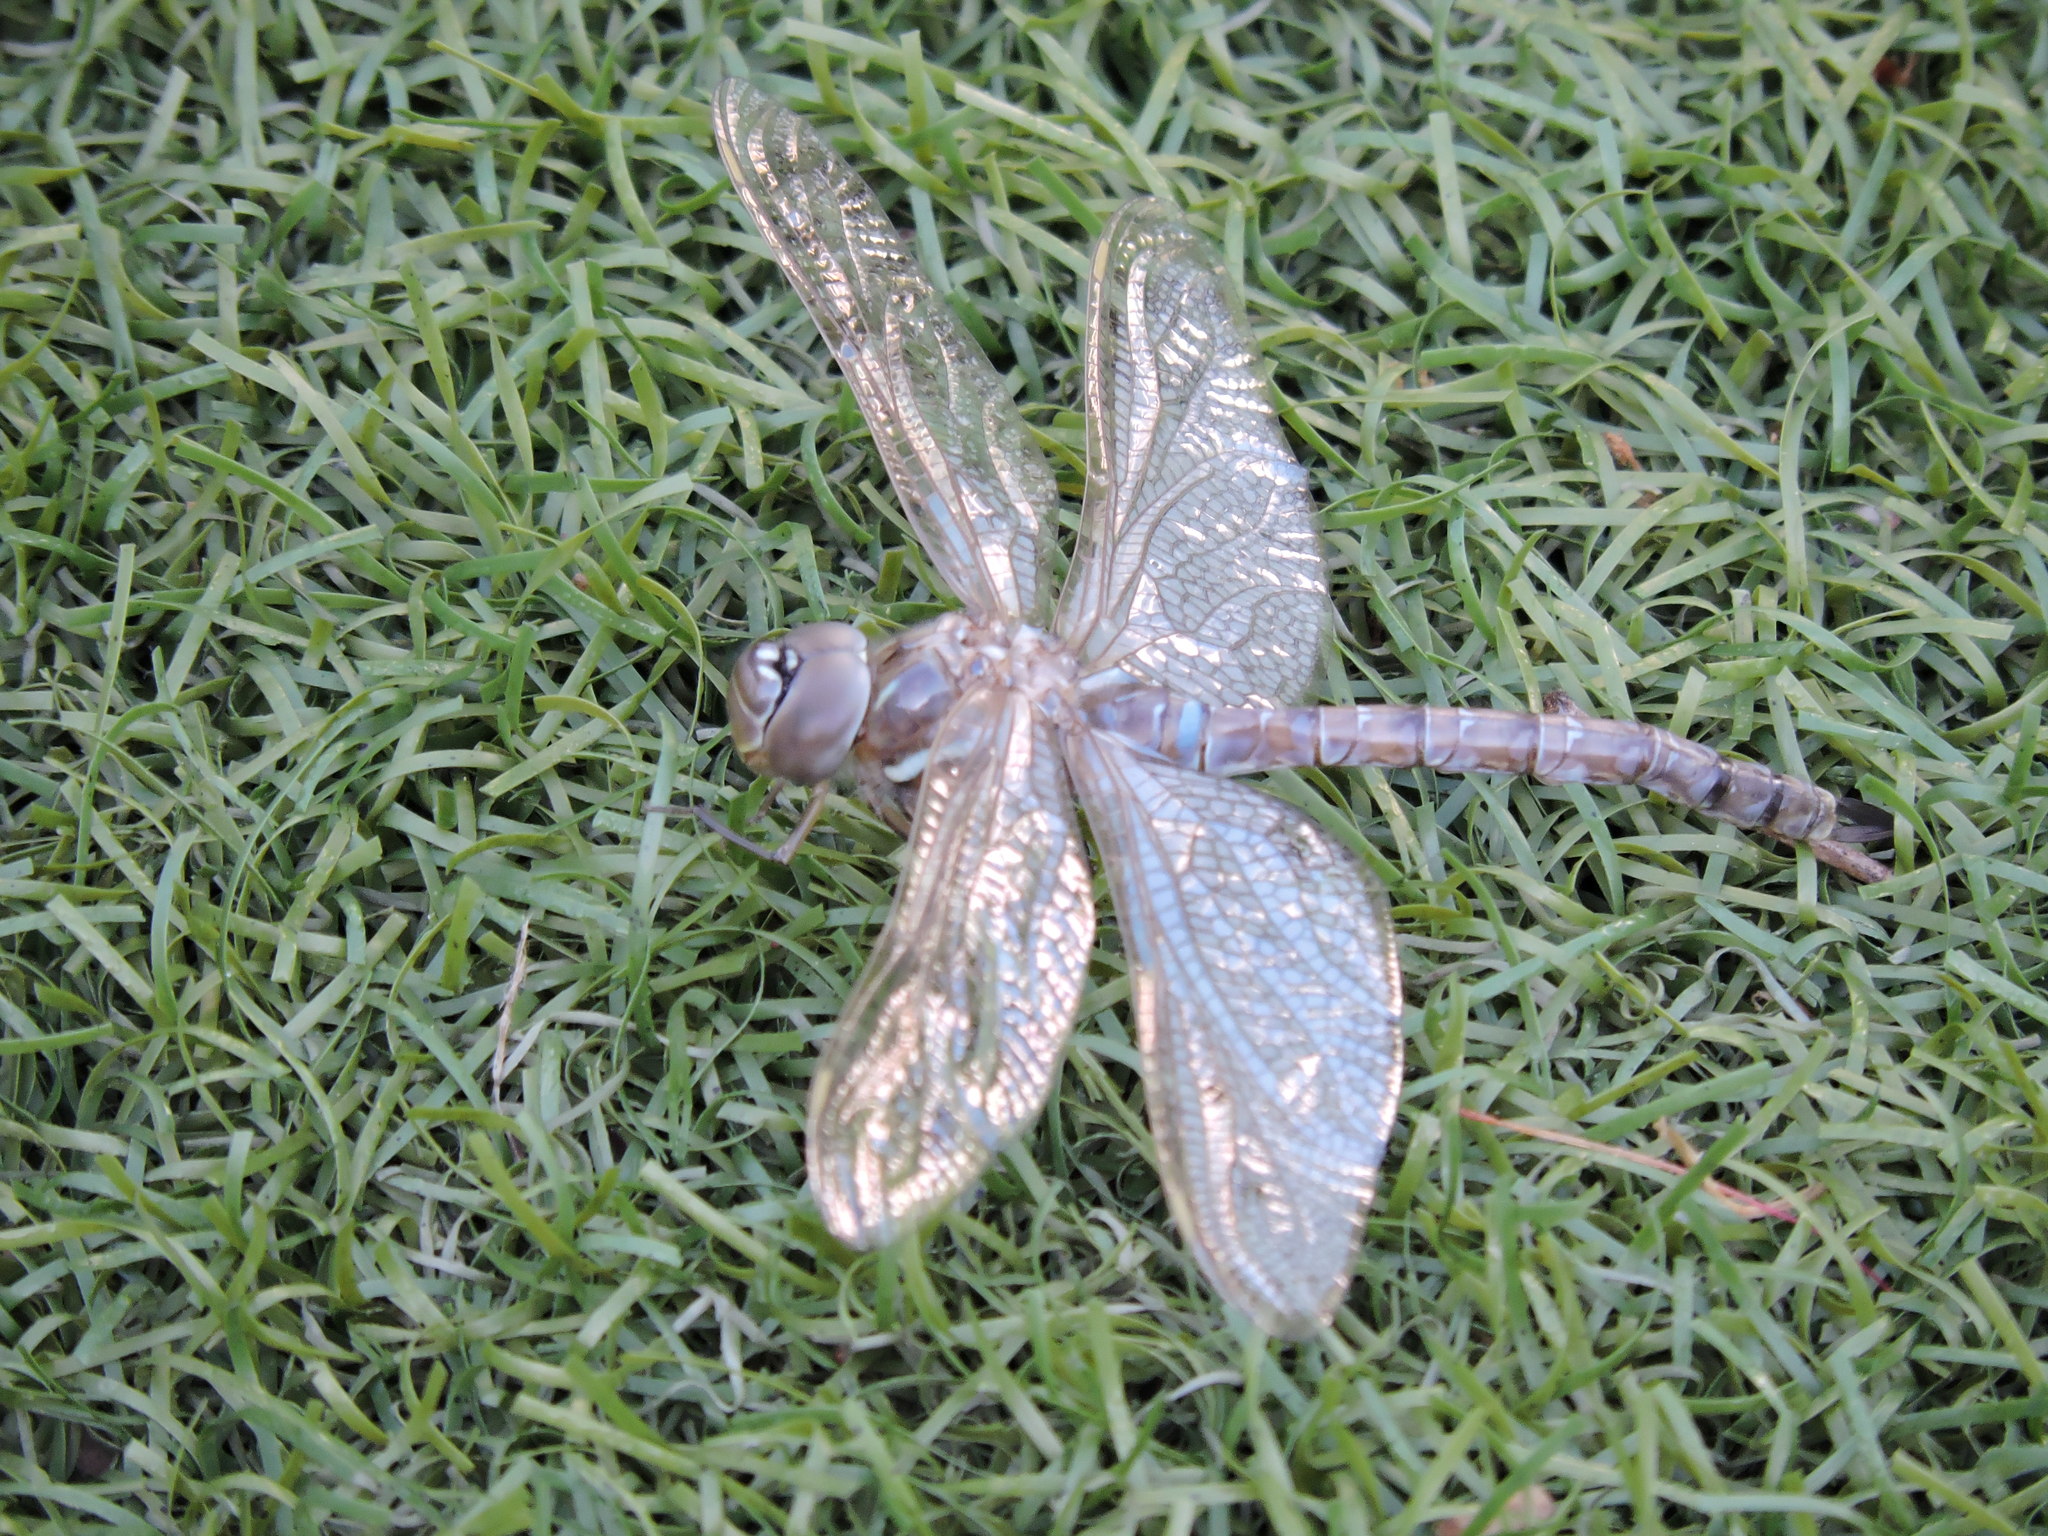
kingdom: Animalia
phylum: Arthropoda
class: Insecta
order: Odonata
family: Aeshnidae
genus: Rhionaeschna
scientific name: Rhionaeschna multicolor
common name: Blue-eyed darner
